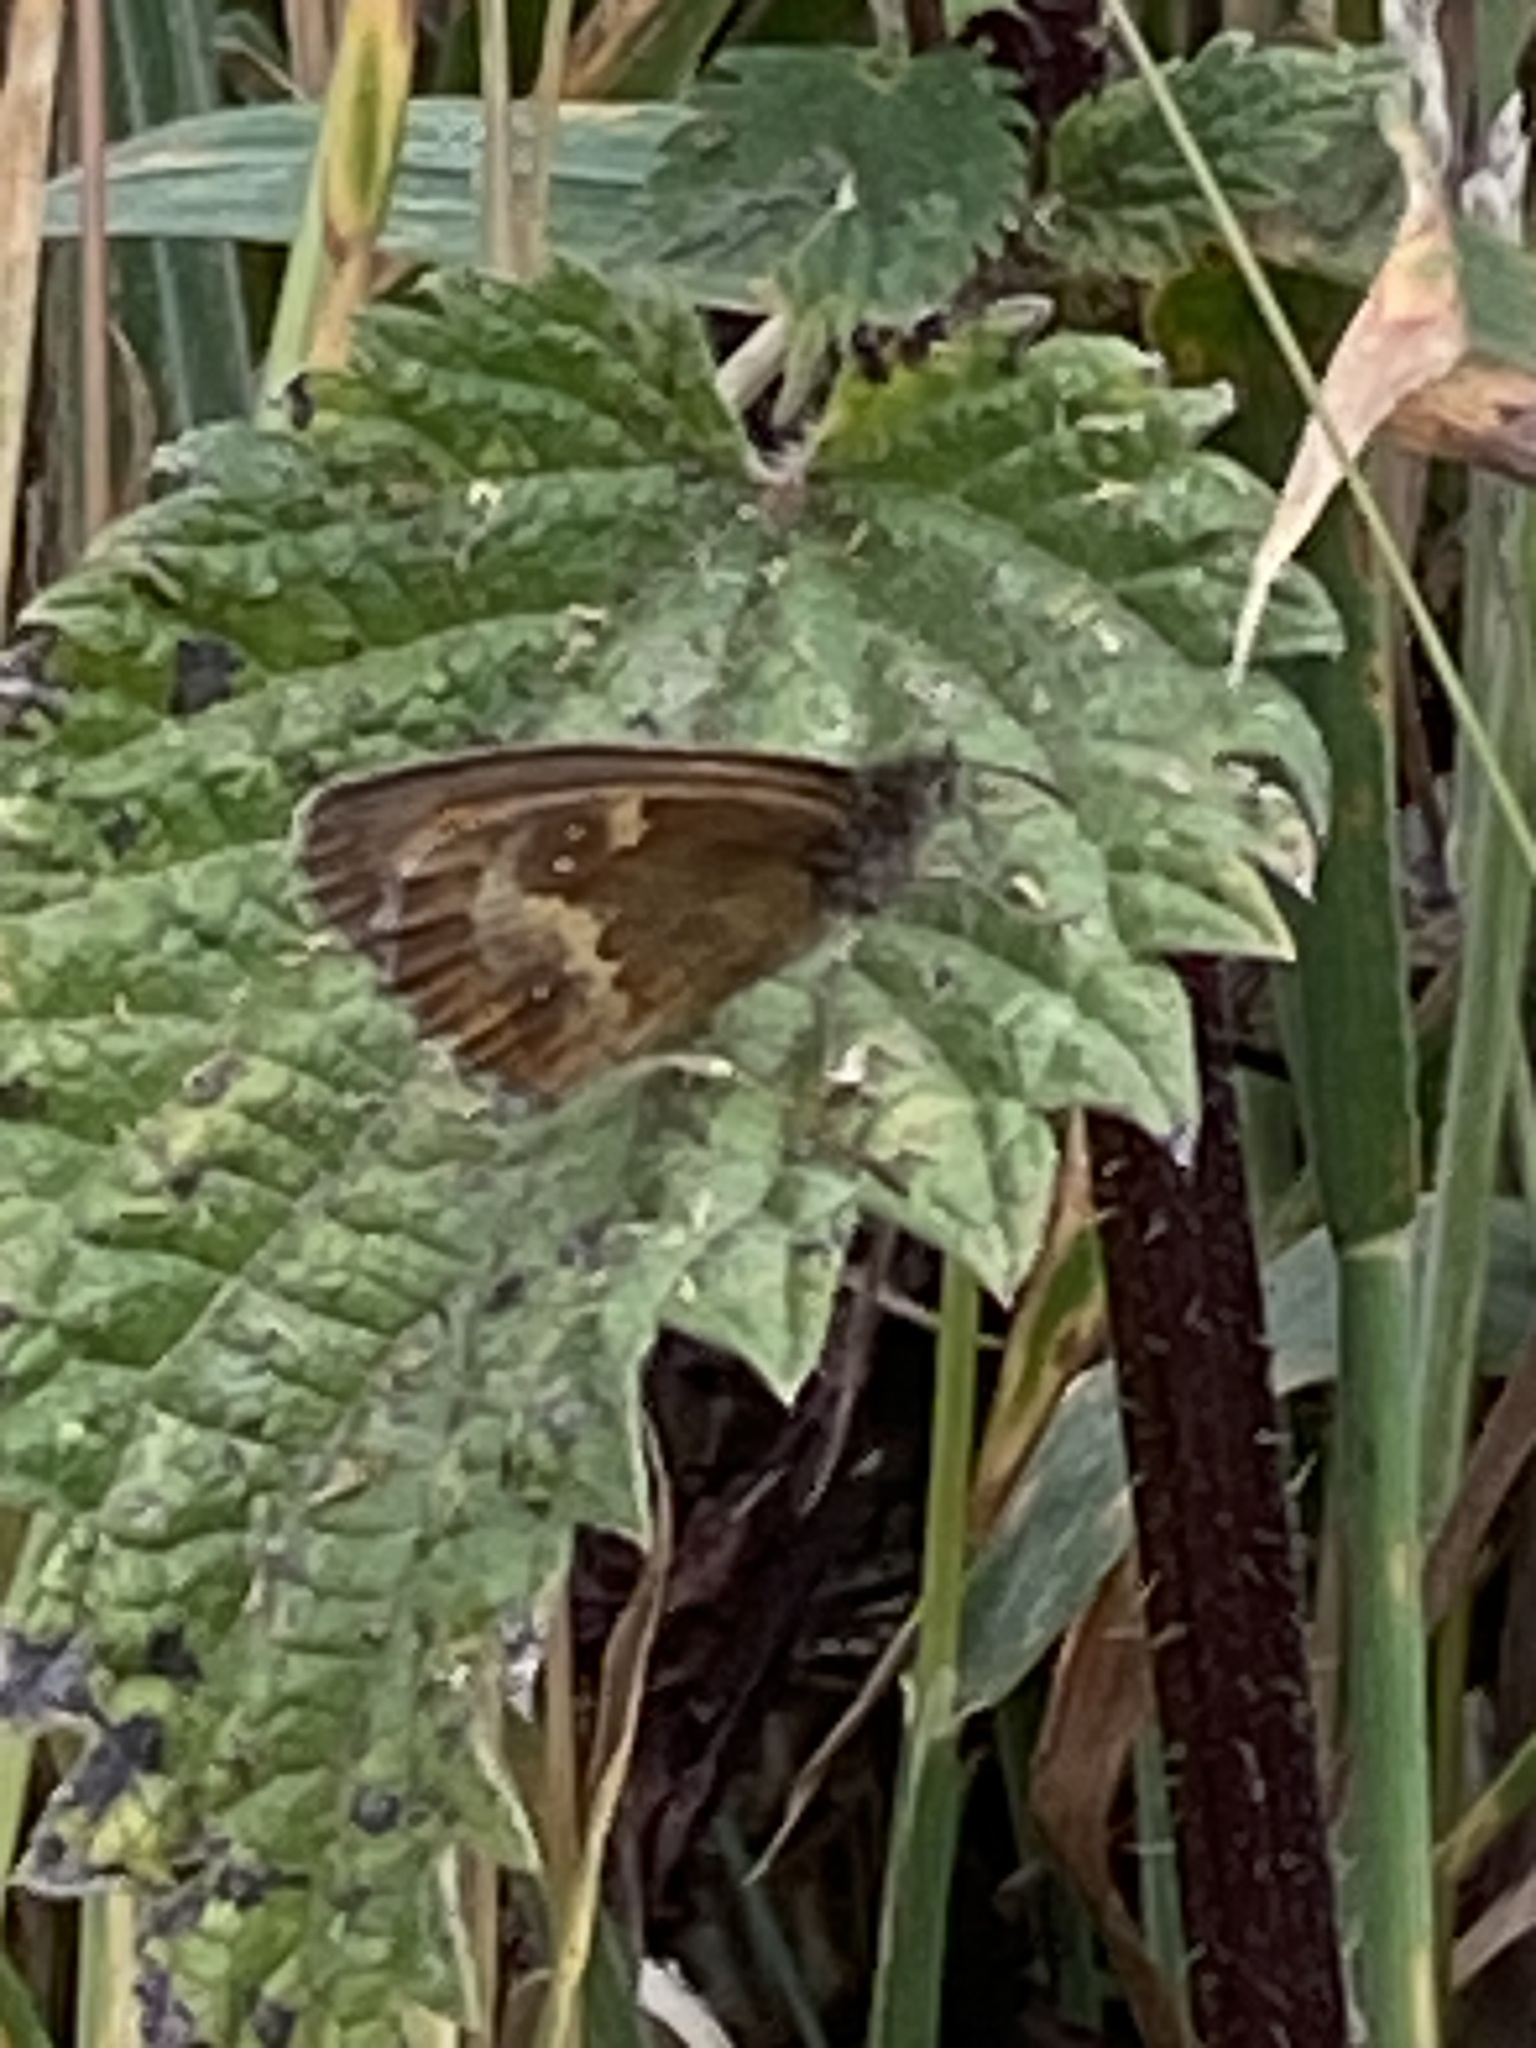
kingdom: Animalia
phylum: Arthropoda
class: Insecta
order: Lepidoptera
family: Nymphalidae
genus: Pyronia
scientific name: Pyronia tithonus
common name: Gatekeeper
